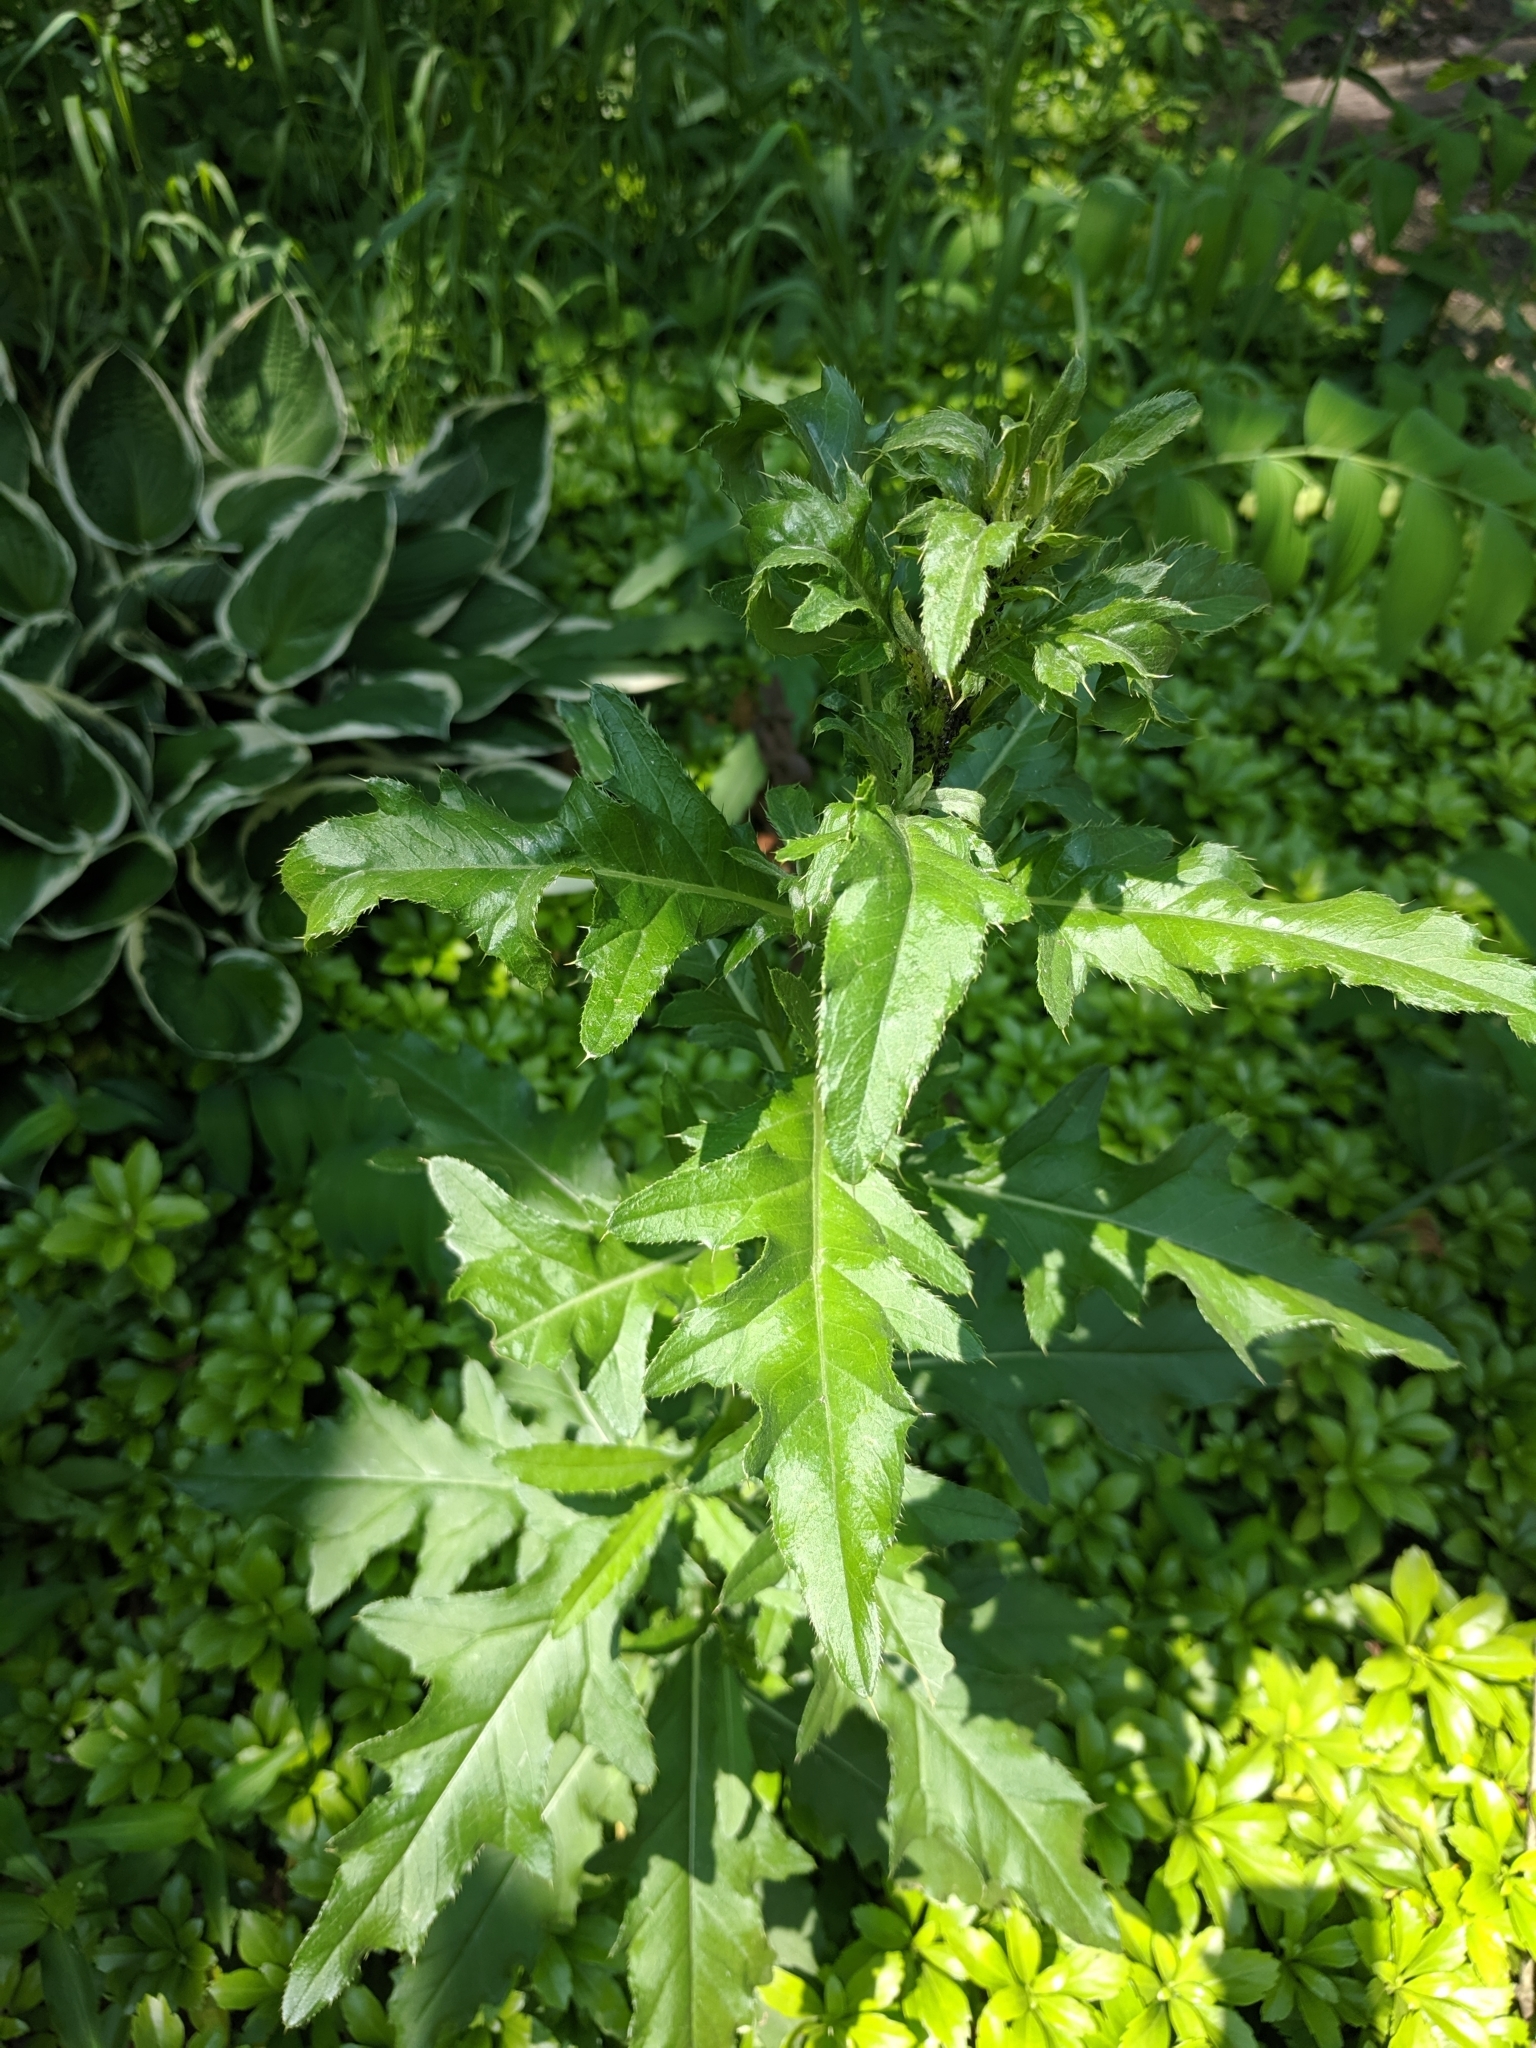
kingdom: Plantae
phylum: Tracheophyta
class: Magnoliopsida
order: Asterales
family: Asteraceae
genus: Cirsium
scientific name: Cirsium arvense
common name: Creeping thistle
